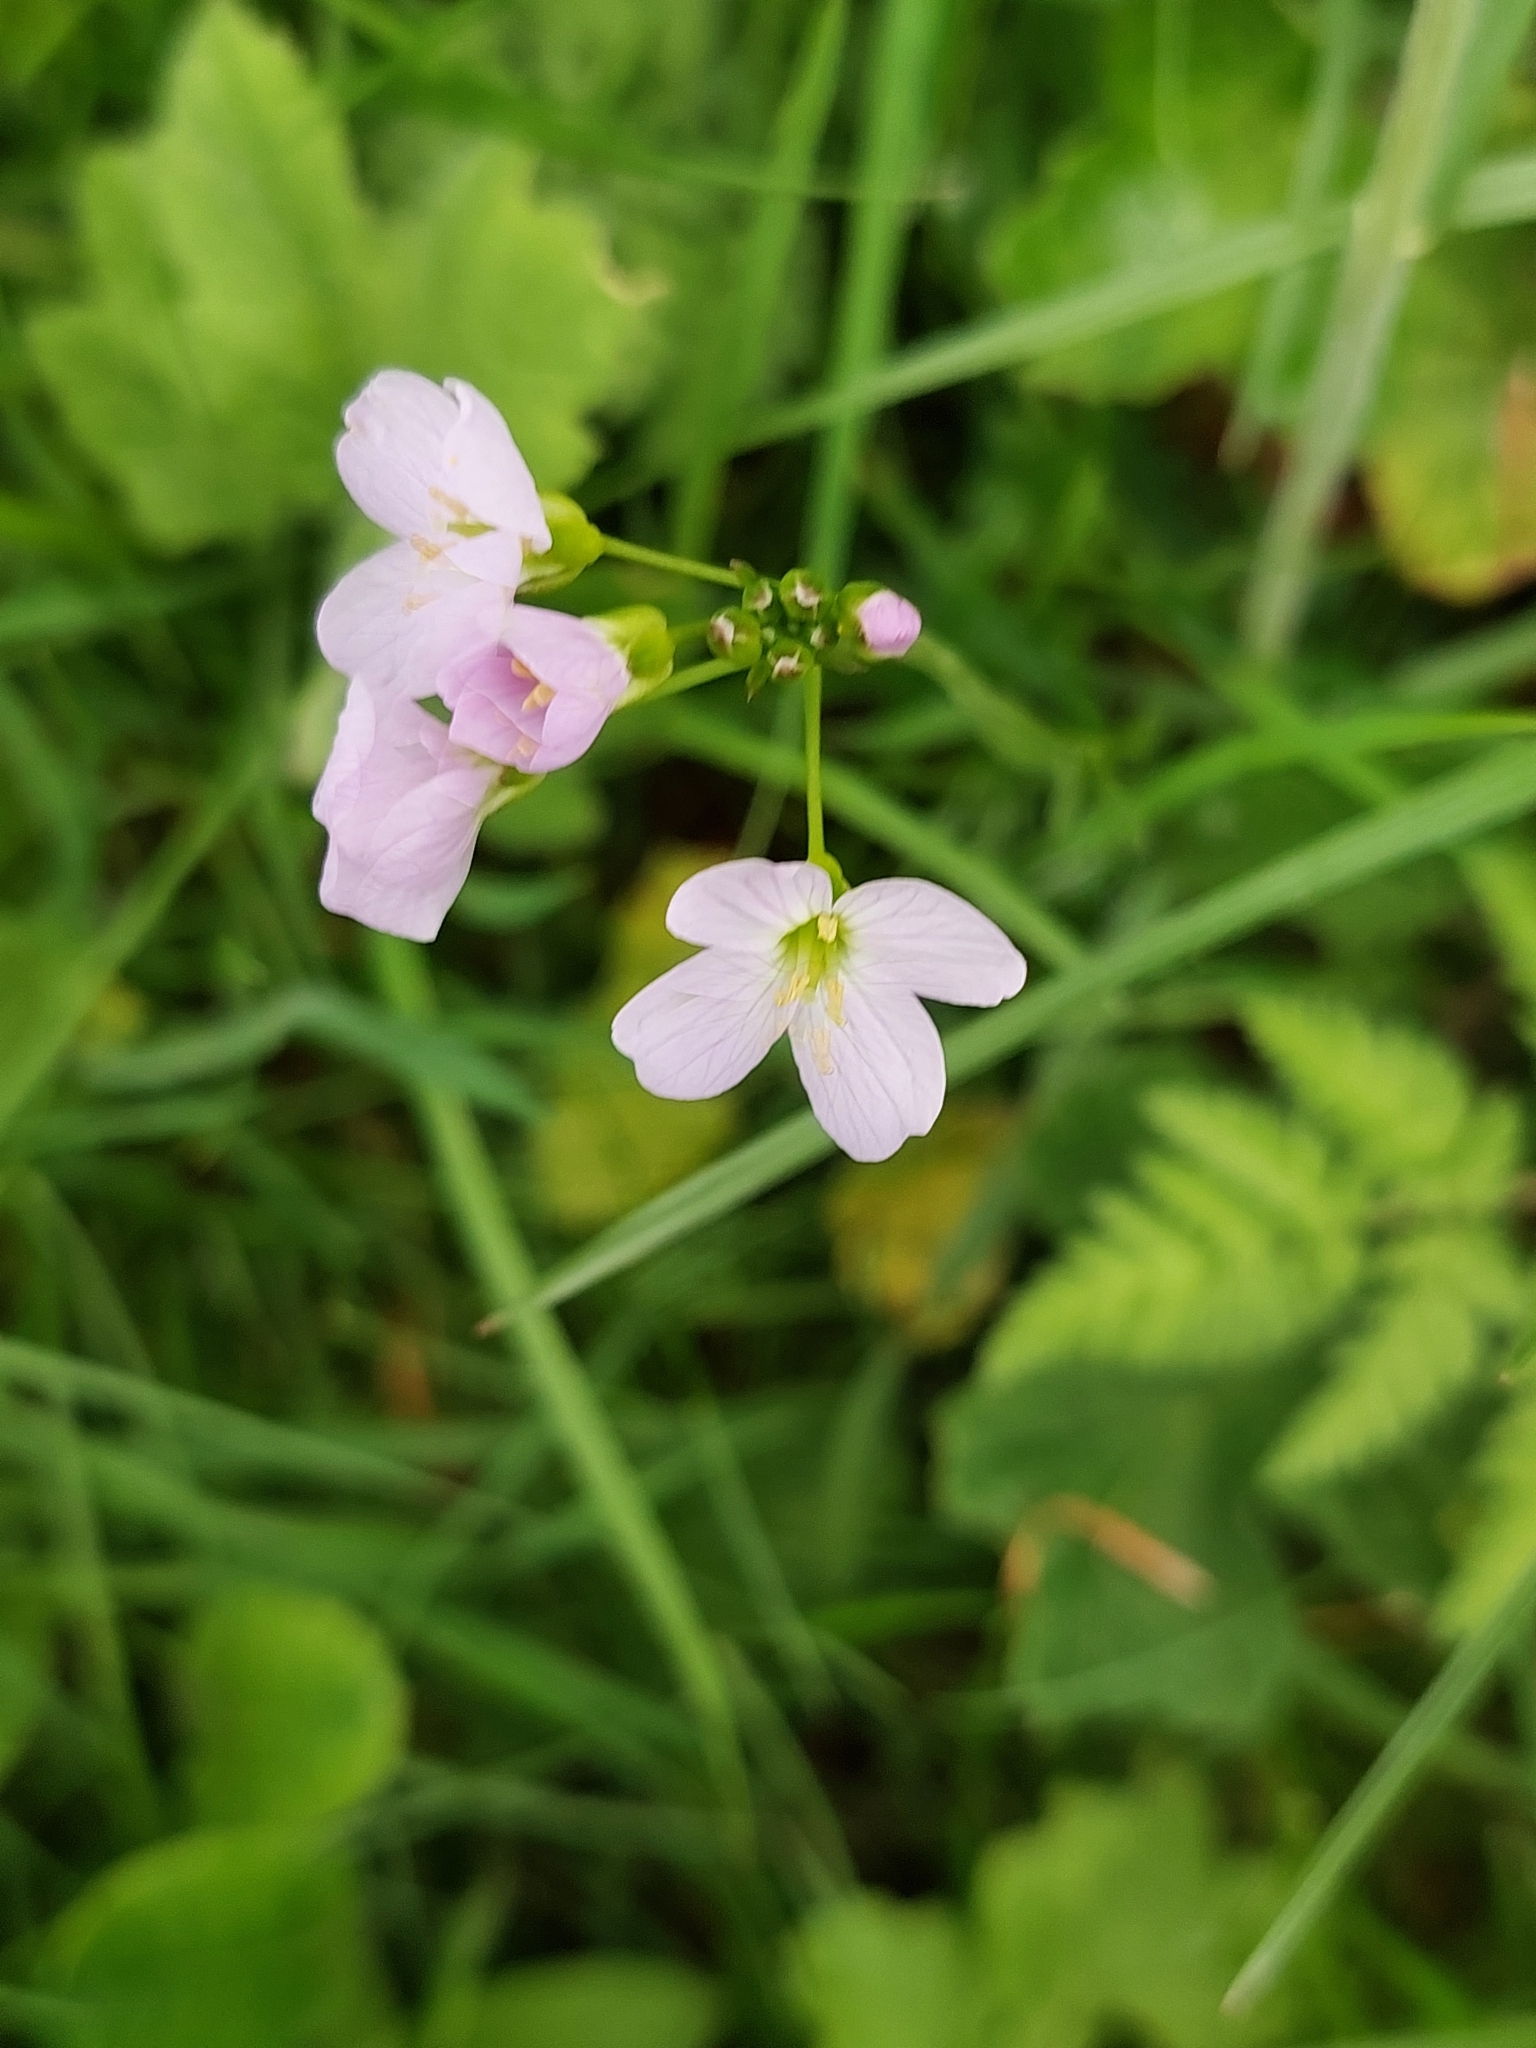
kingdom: Plantae
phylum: Tracheophyta
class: Magnoliopsida
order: Brassicales
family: Brassicaceae
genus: Cardamine
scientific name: Cardamine pratensis
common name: Cuckoo flower
